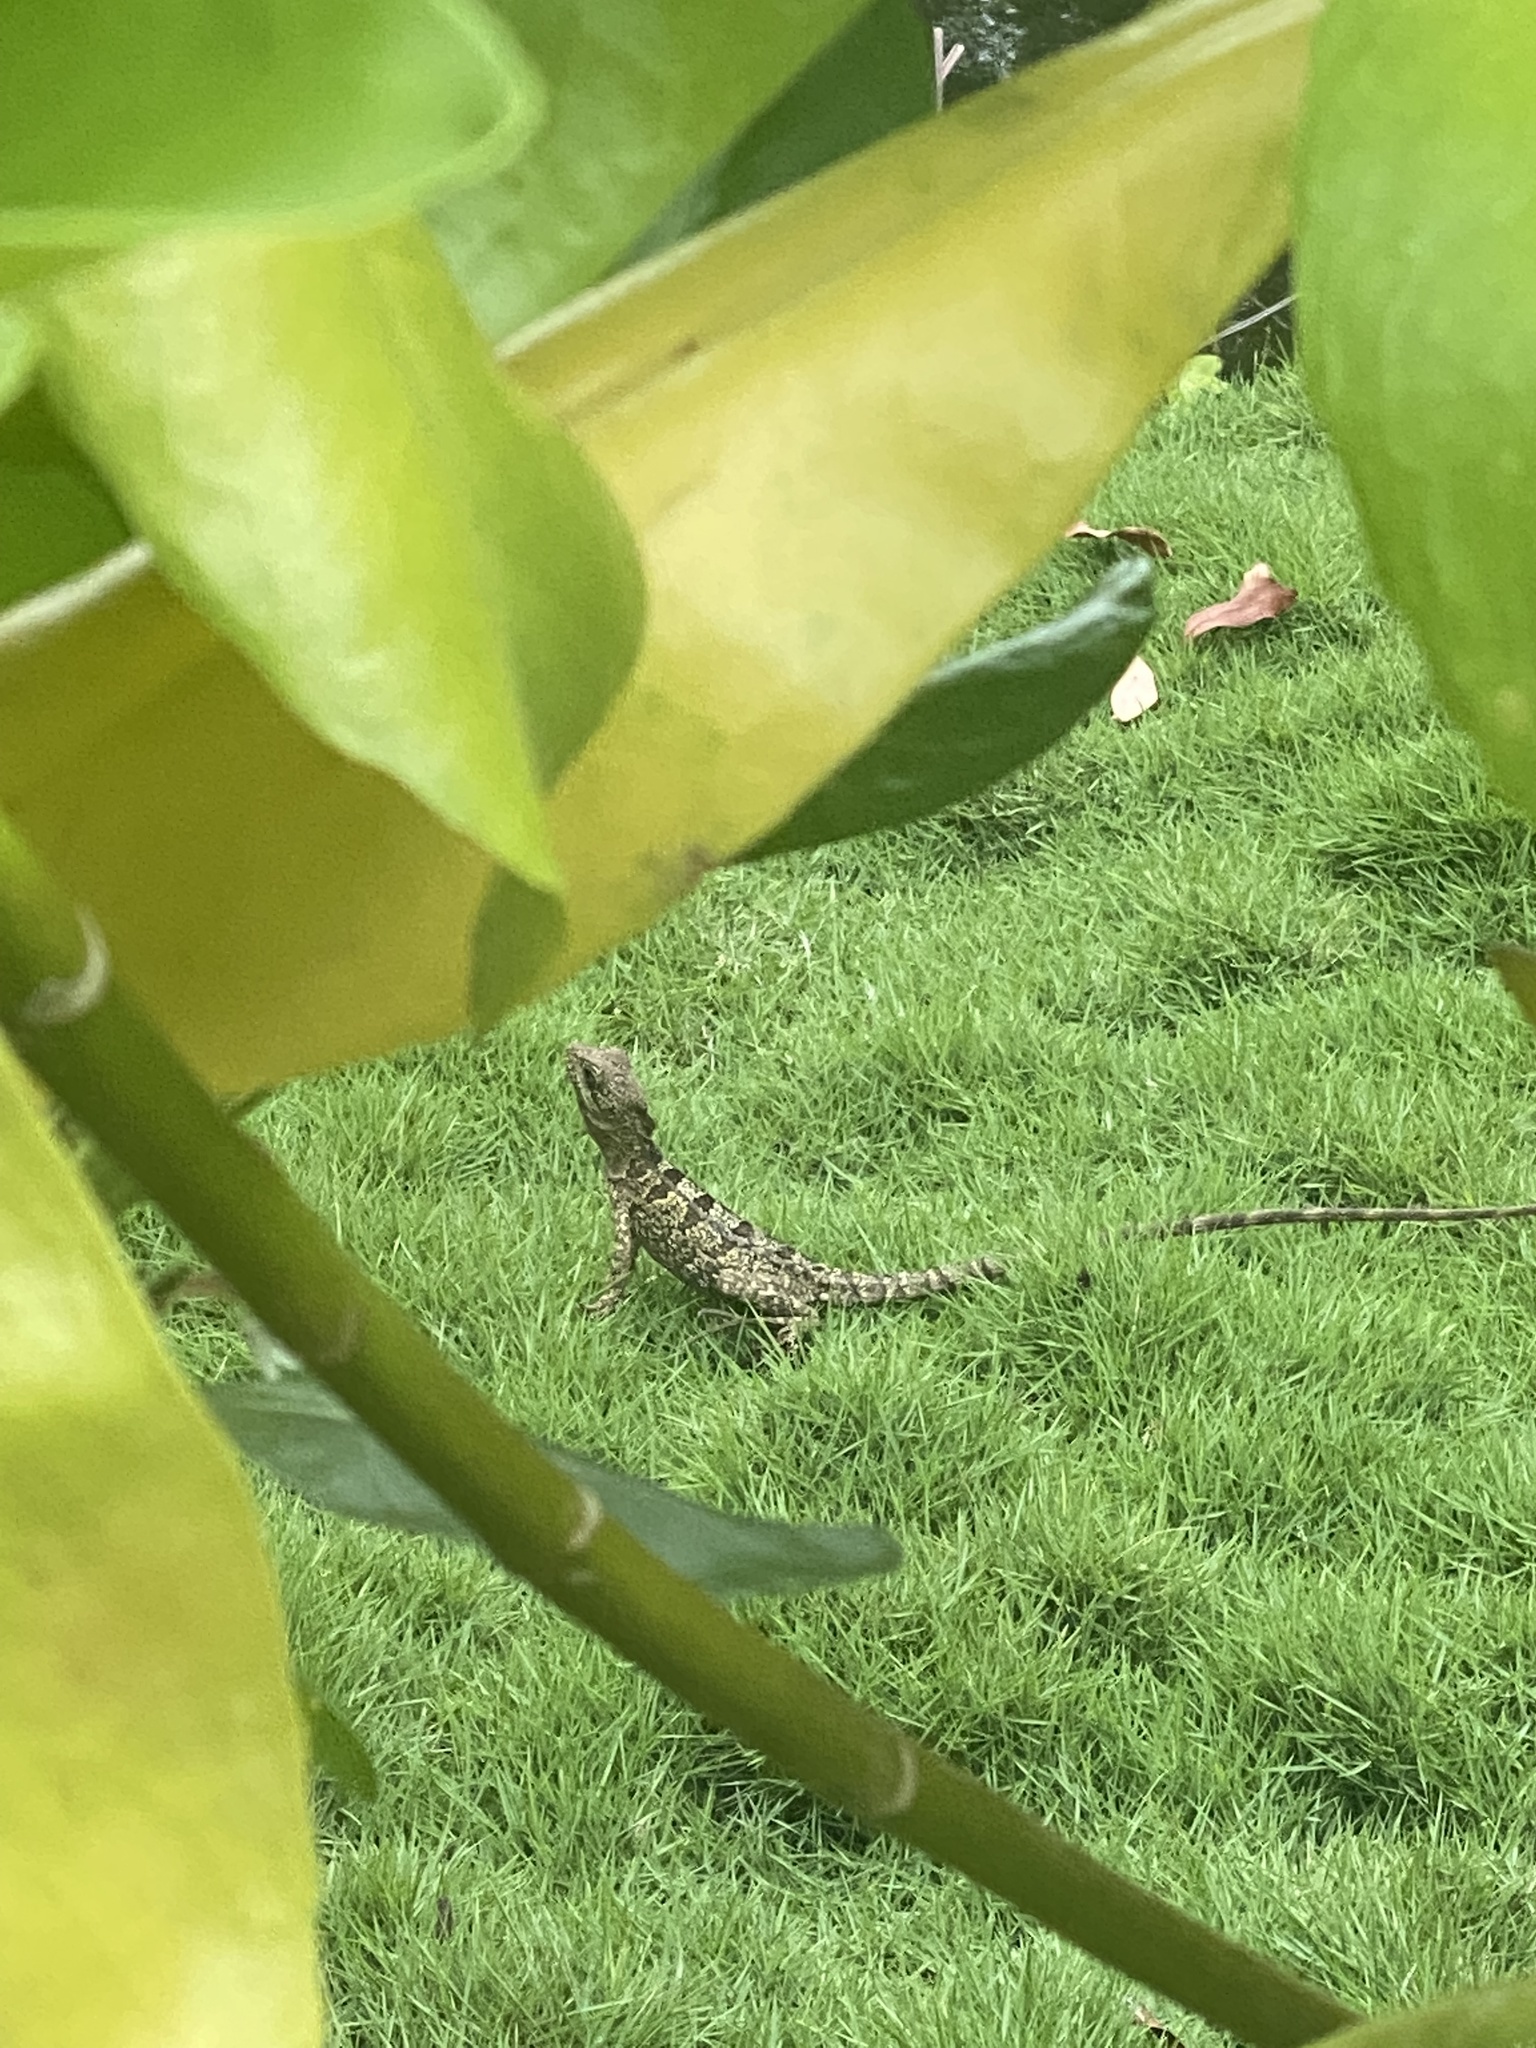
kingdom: Animalia
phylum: Chordata
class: Squamata
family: Corytophanidae
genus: Basiliscus
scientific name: Basiliscus vittatus
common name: Brown basilisk
